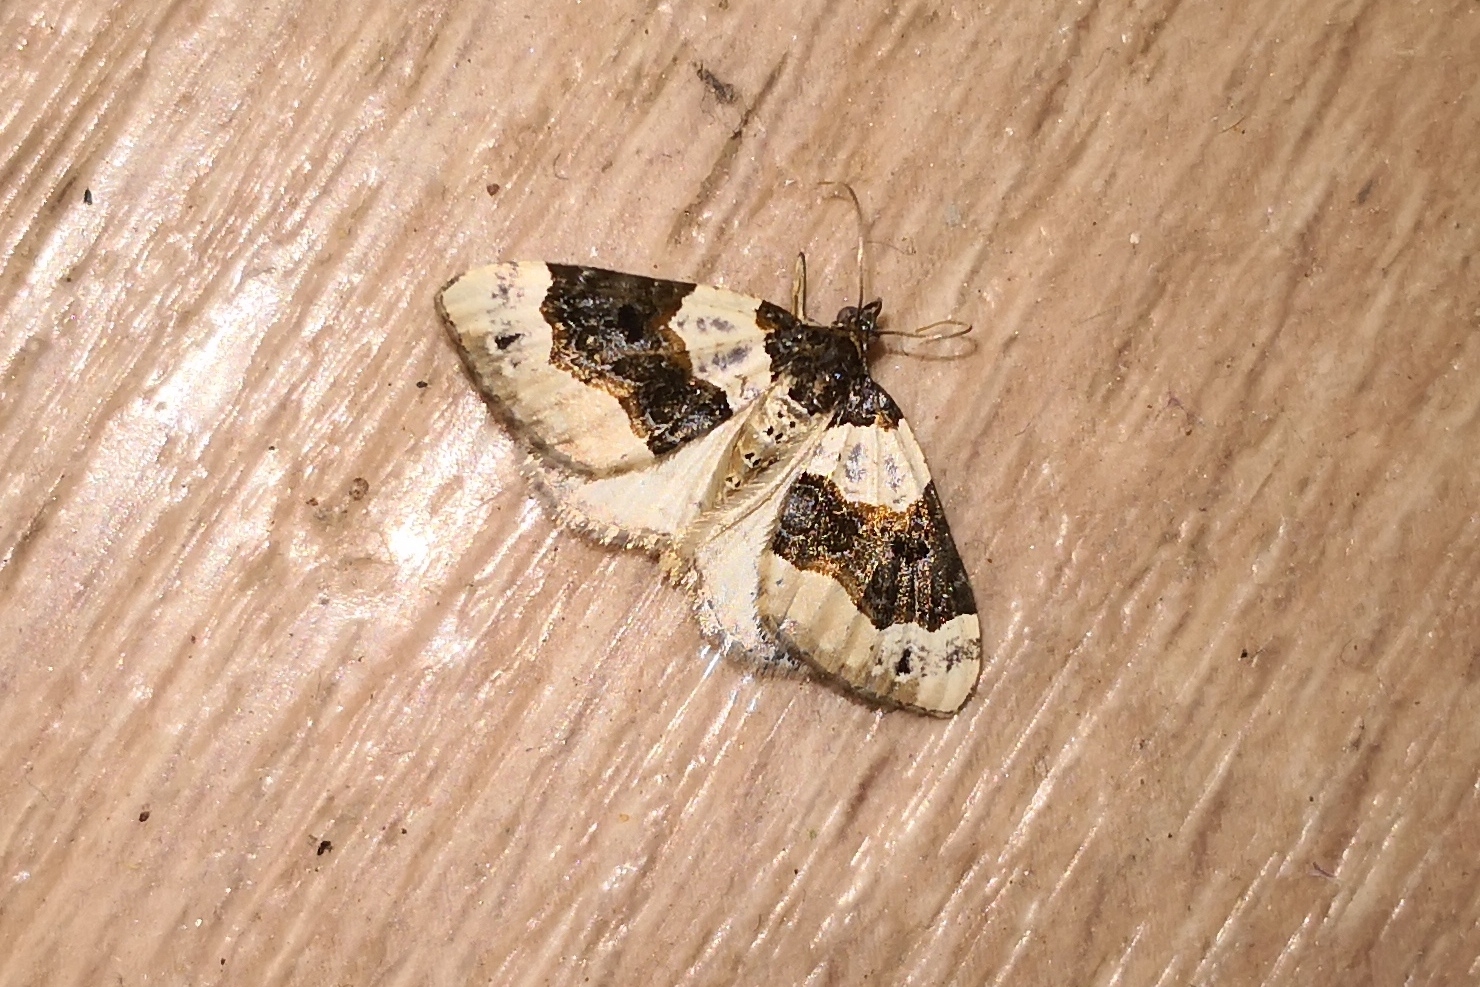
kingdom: Animalia
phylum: Arthropoda
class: Insecta
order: Lepidoptera
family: Geometridae
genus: Cosmorhoe
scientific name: Cosmorhoe ocellata
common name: Purple bar
